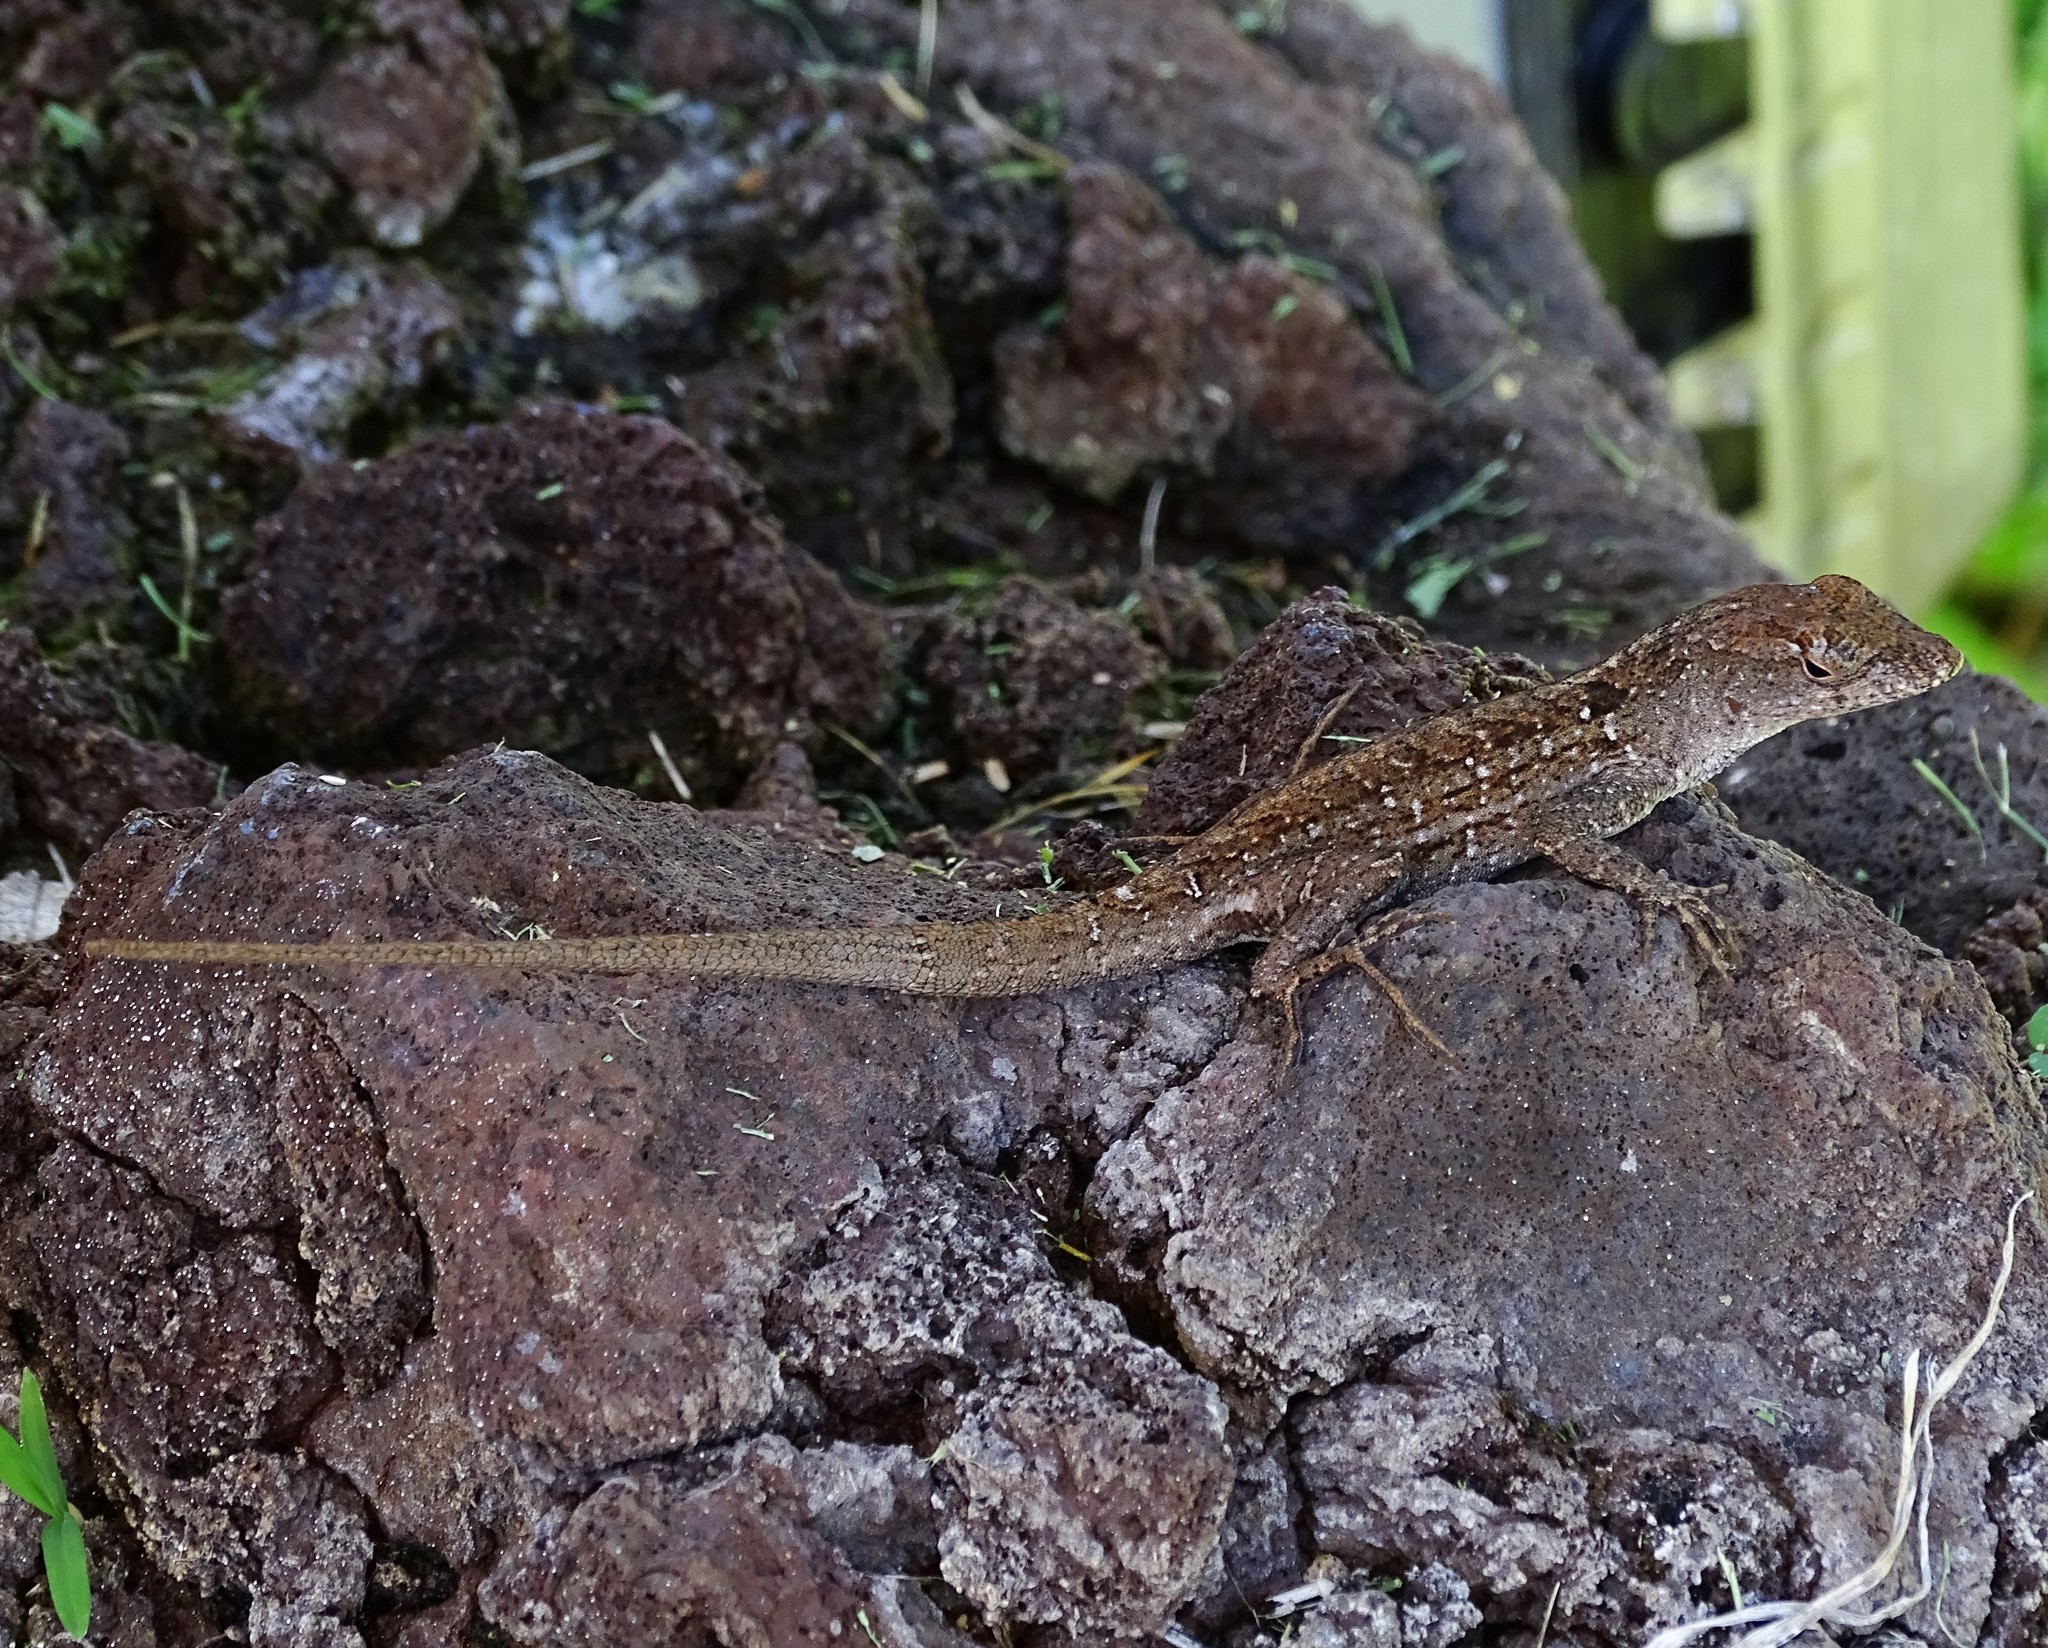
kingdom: Animalia
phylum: Chordata
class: Squamata
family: Dactyloidae
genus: Anolis
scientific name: Anolis sagrei
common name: Brown anole
